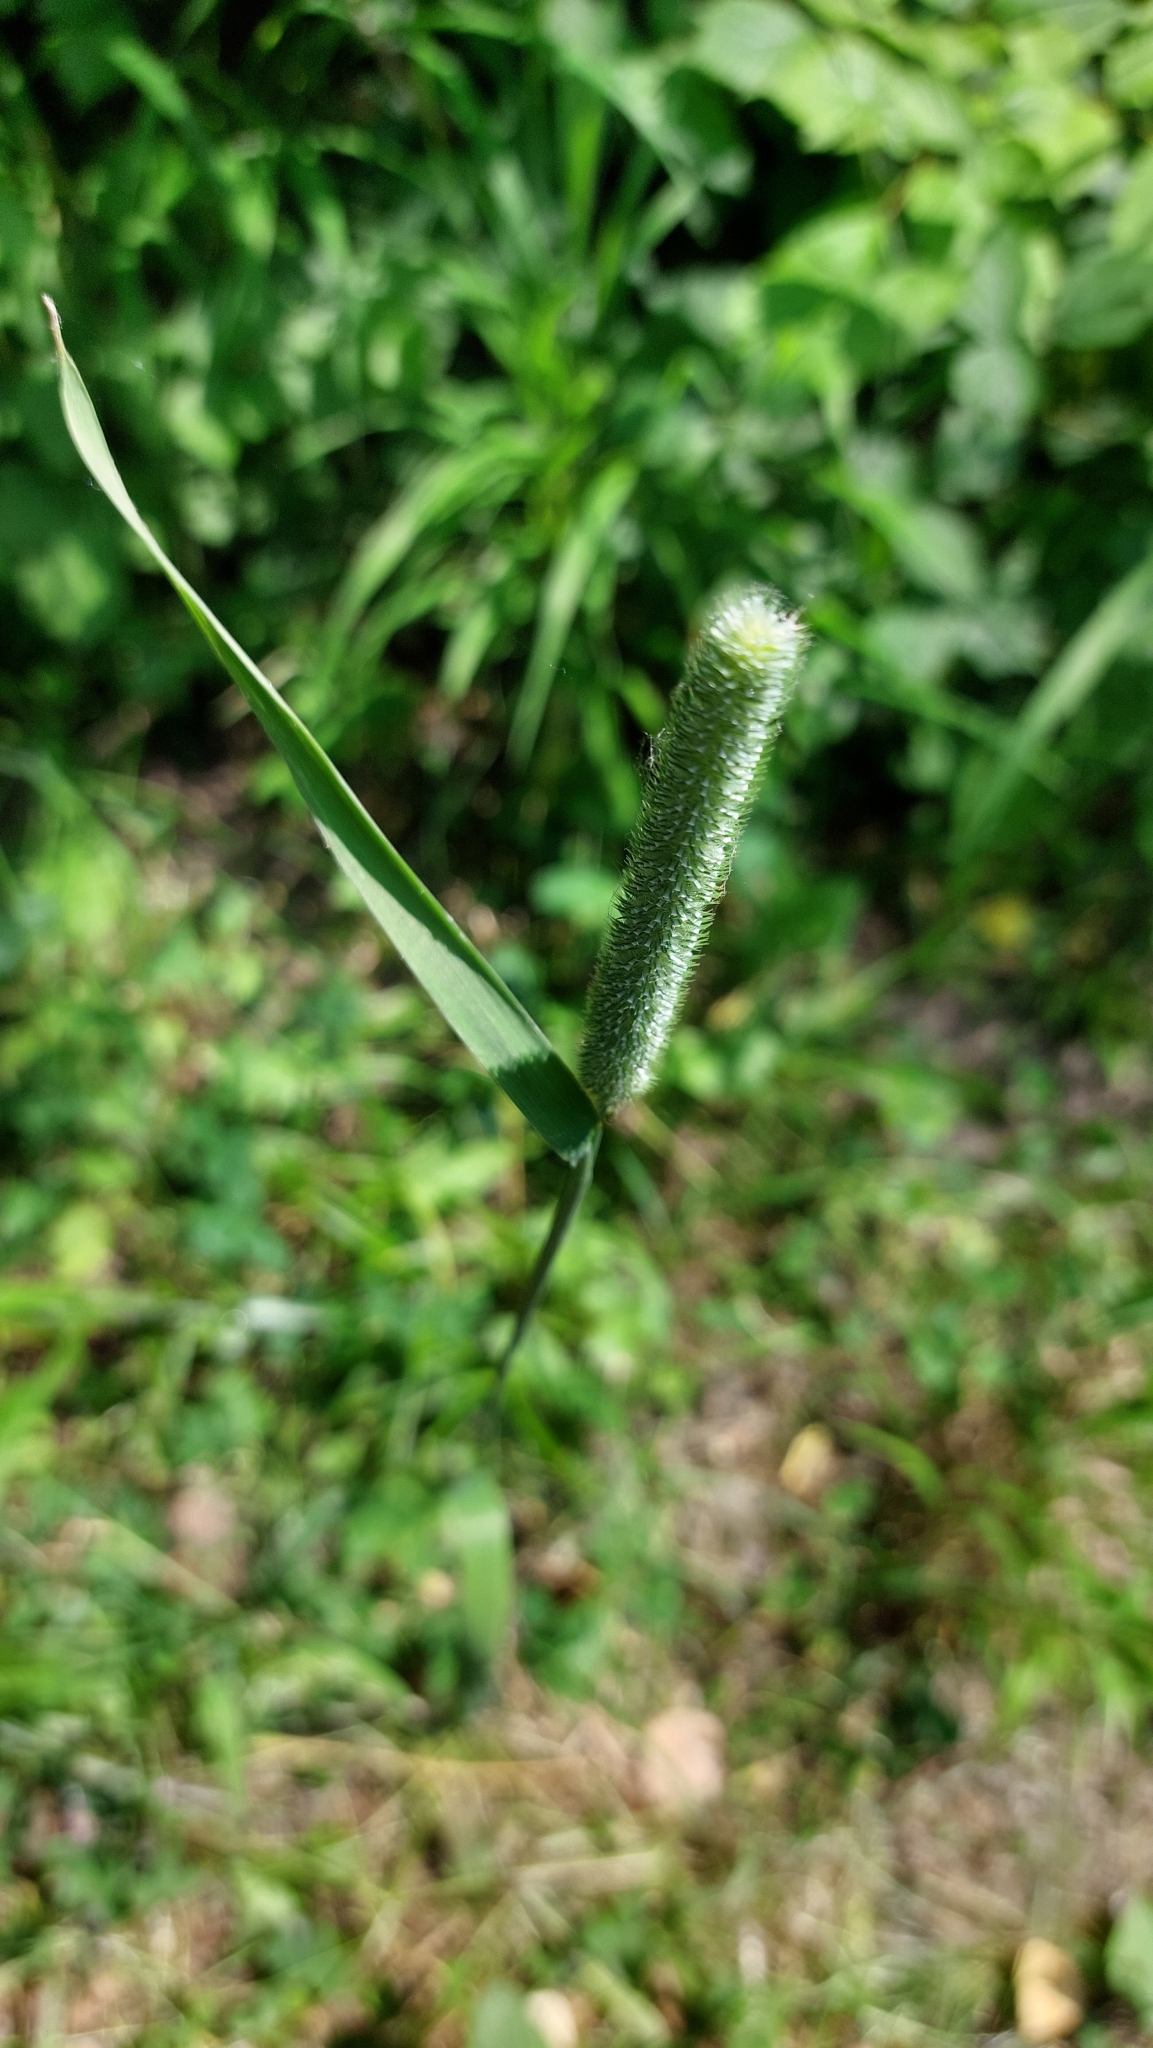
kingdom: Plantae
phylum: Tracheophyta
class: Liliopsida
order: Poales
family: Poaceae
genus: Phleum
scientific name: Phleum pratense
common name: Timothy grass
